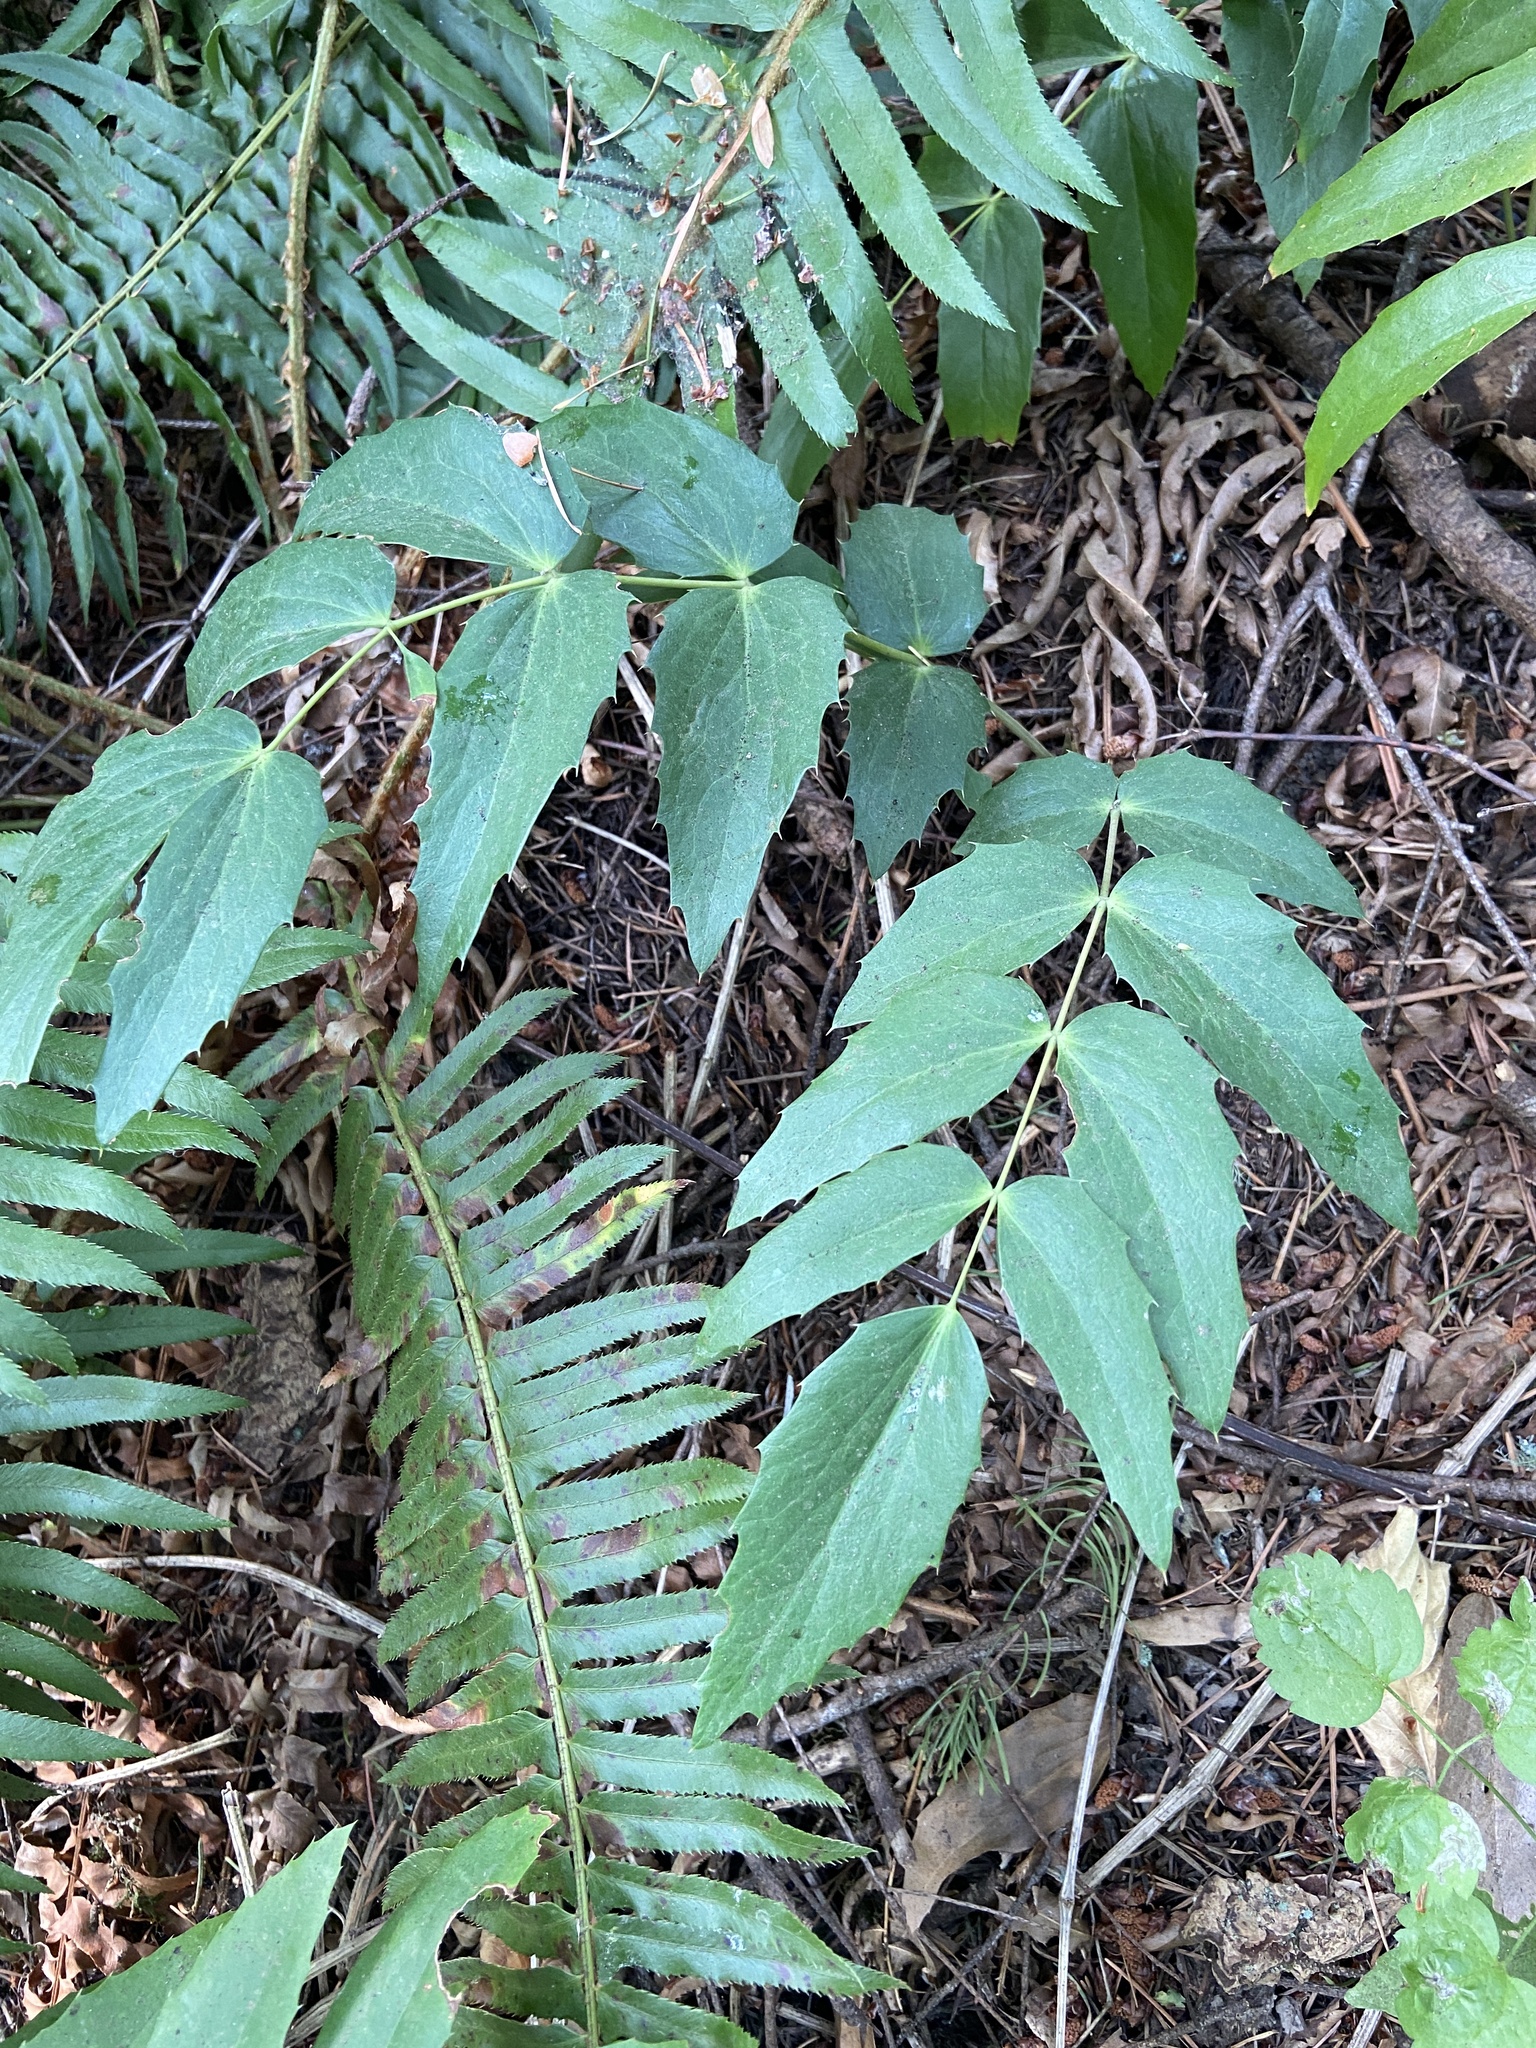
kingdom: Plantae
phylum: Tracheophyta
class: Magnoliopsida
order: Ranunculales
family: Berberidaceae
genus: Mahonia
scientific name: Mahonia nervosa
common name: Cascade oregon-grape
